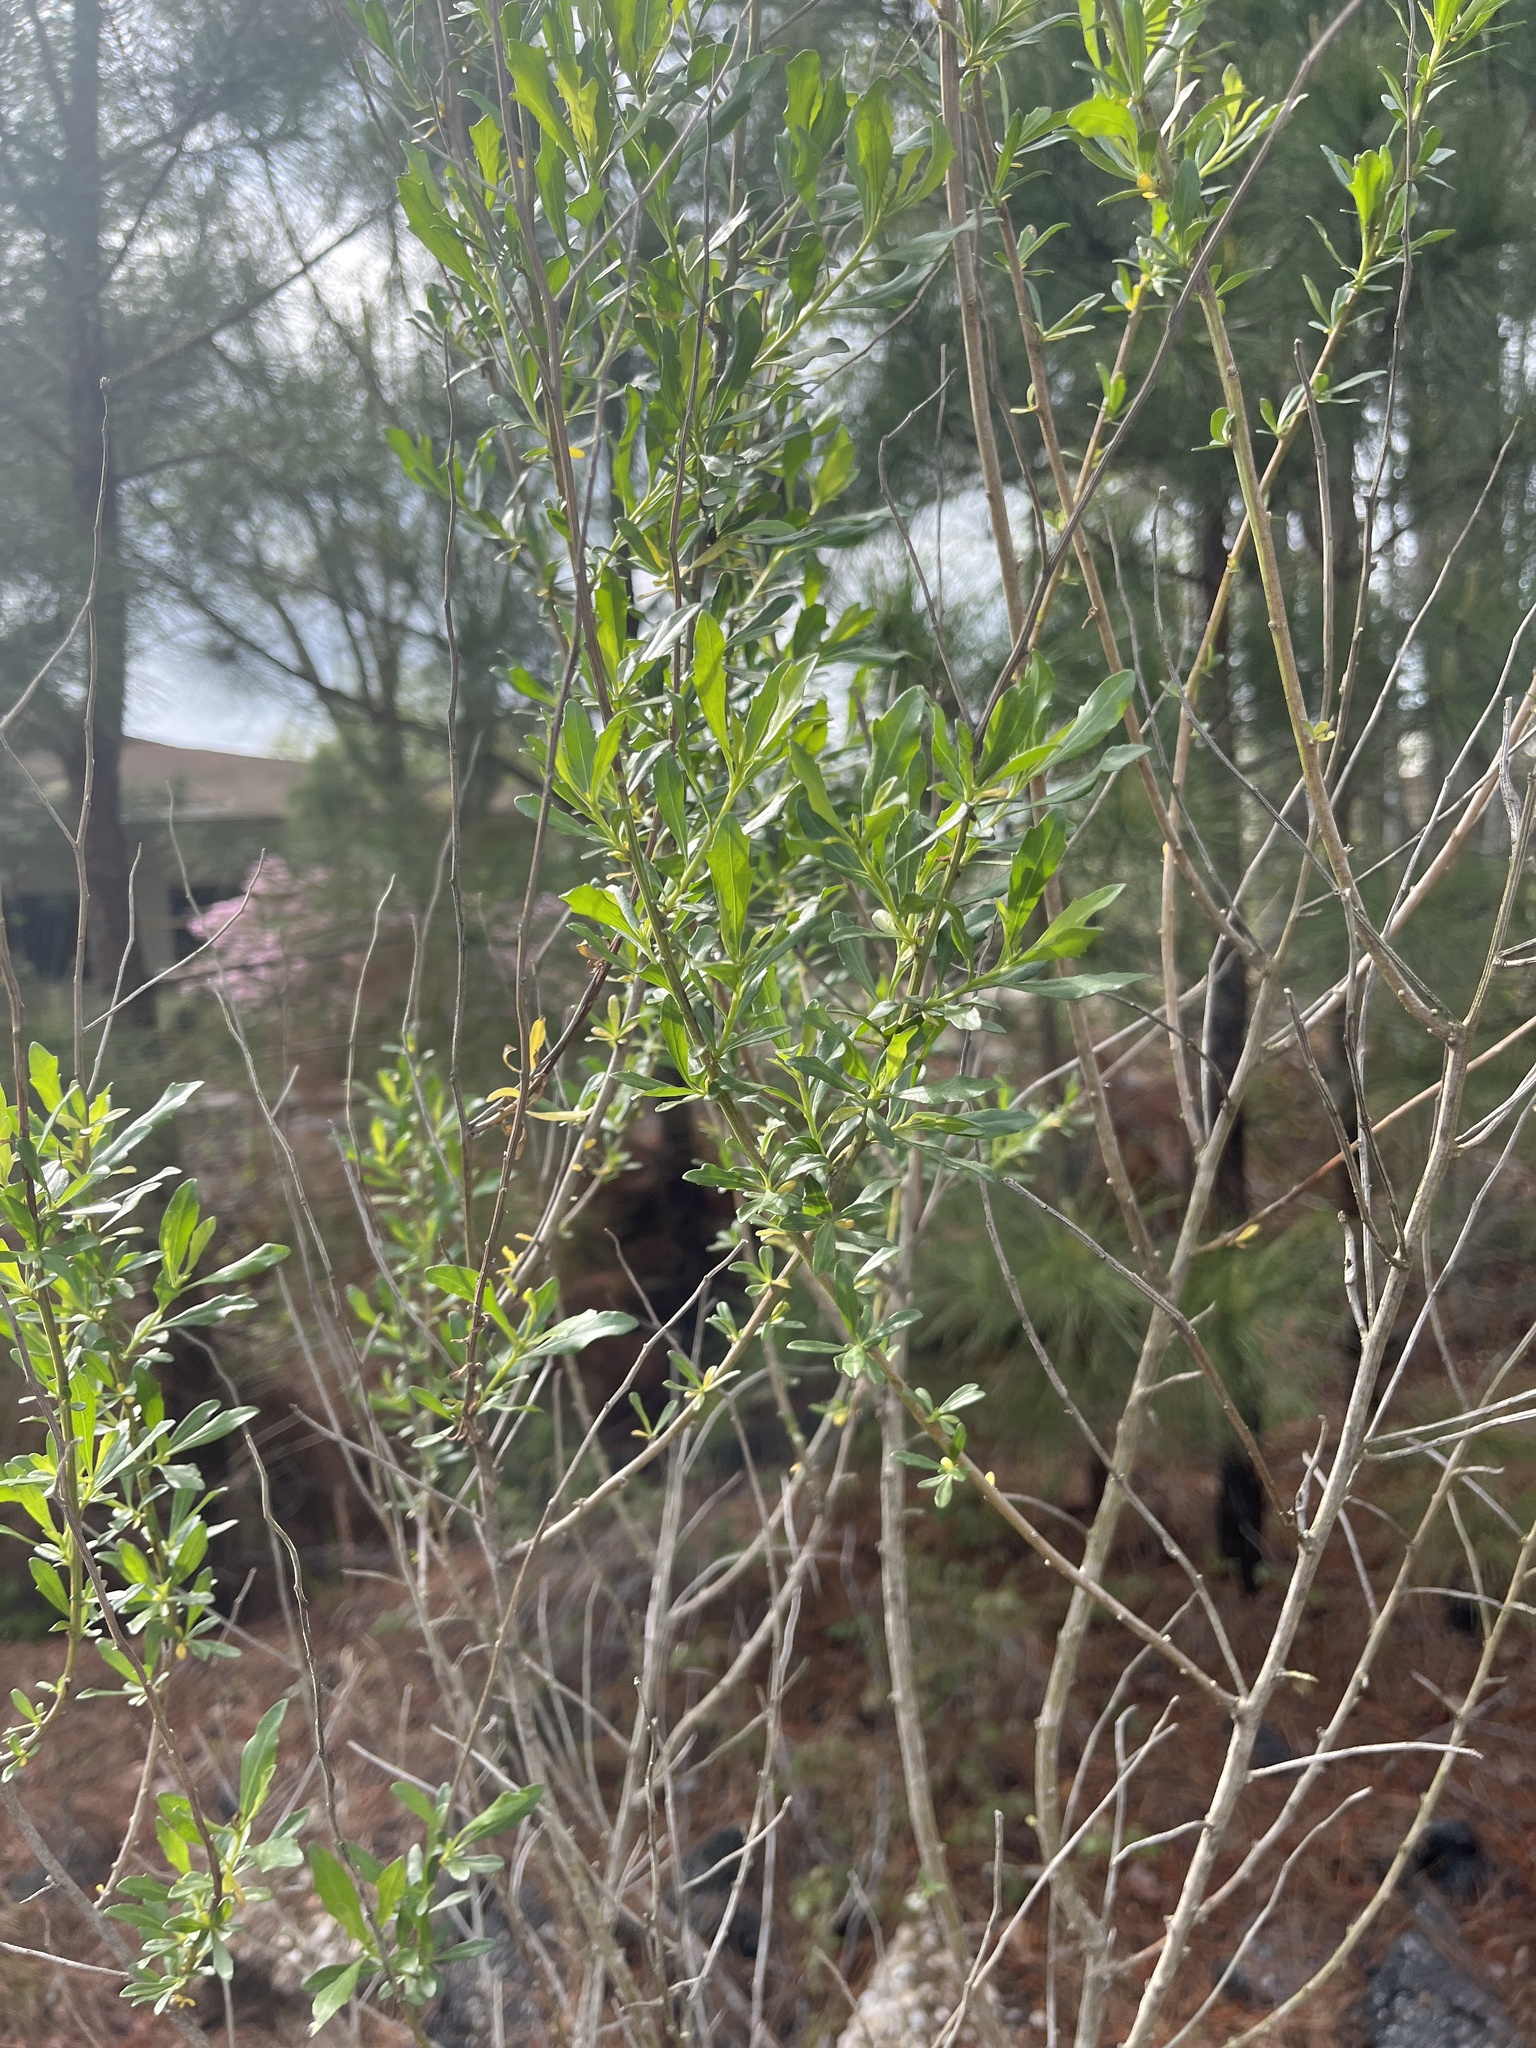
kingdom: Plantae
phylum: Tracheophyta
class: Magnoliopsida
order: Asterales
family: Asteraceae
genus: Baccharis
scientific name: Baccharis halimifolia
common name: Eastern baccharis
